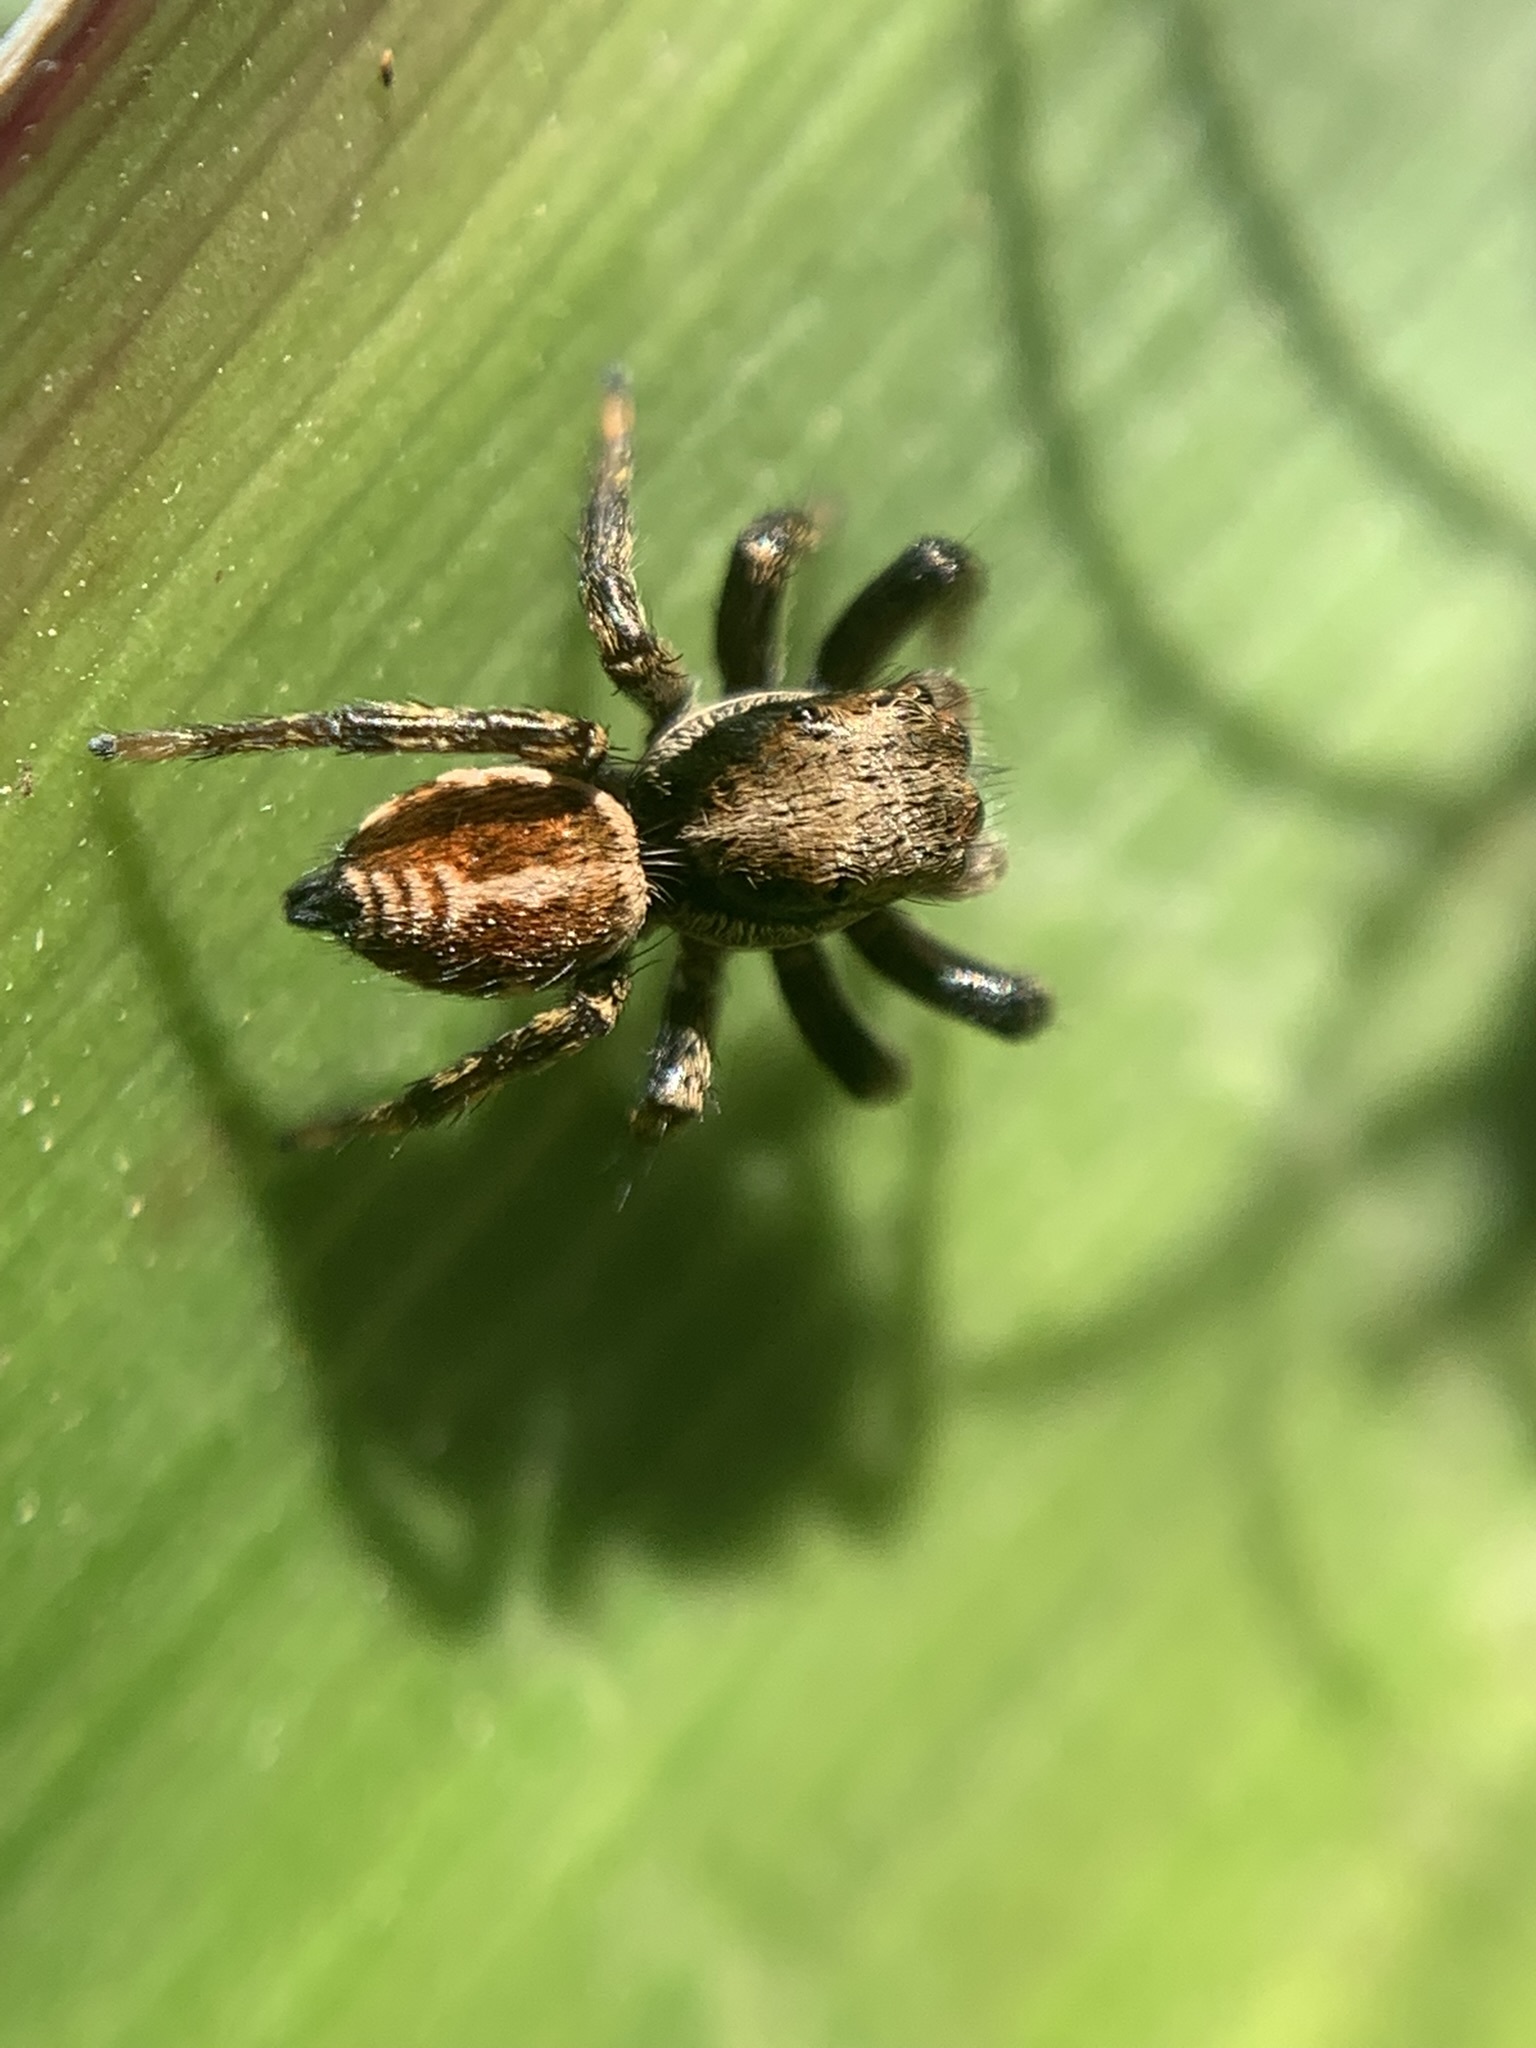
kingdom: Animalia
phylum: Arthropoda
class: Arachnida
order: Araneae
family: Salticidae
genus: Phiale
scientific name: Phiale roburifoliata
